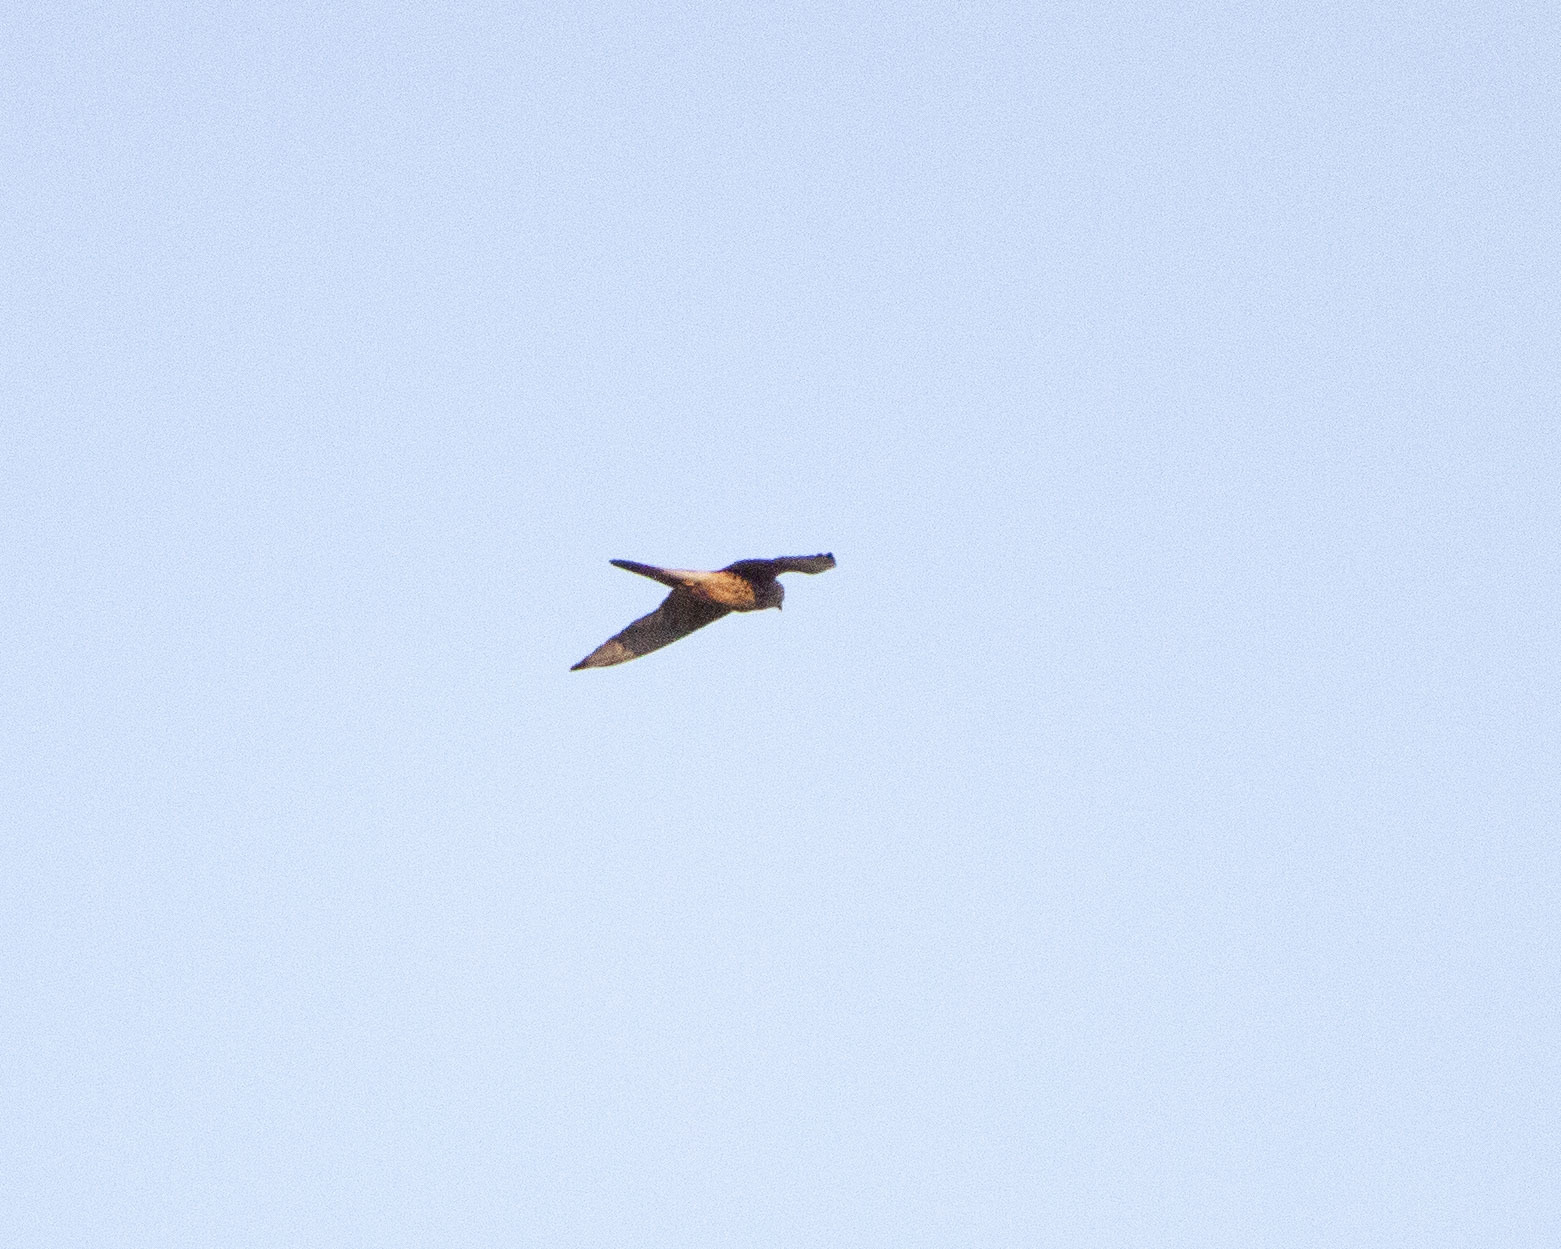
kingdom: Animalia
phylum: Chordata
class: Aves
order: Falconiformes
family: Falconidae
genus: Falco
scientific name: Falco tinnunculus
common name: Common kestrel
